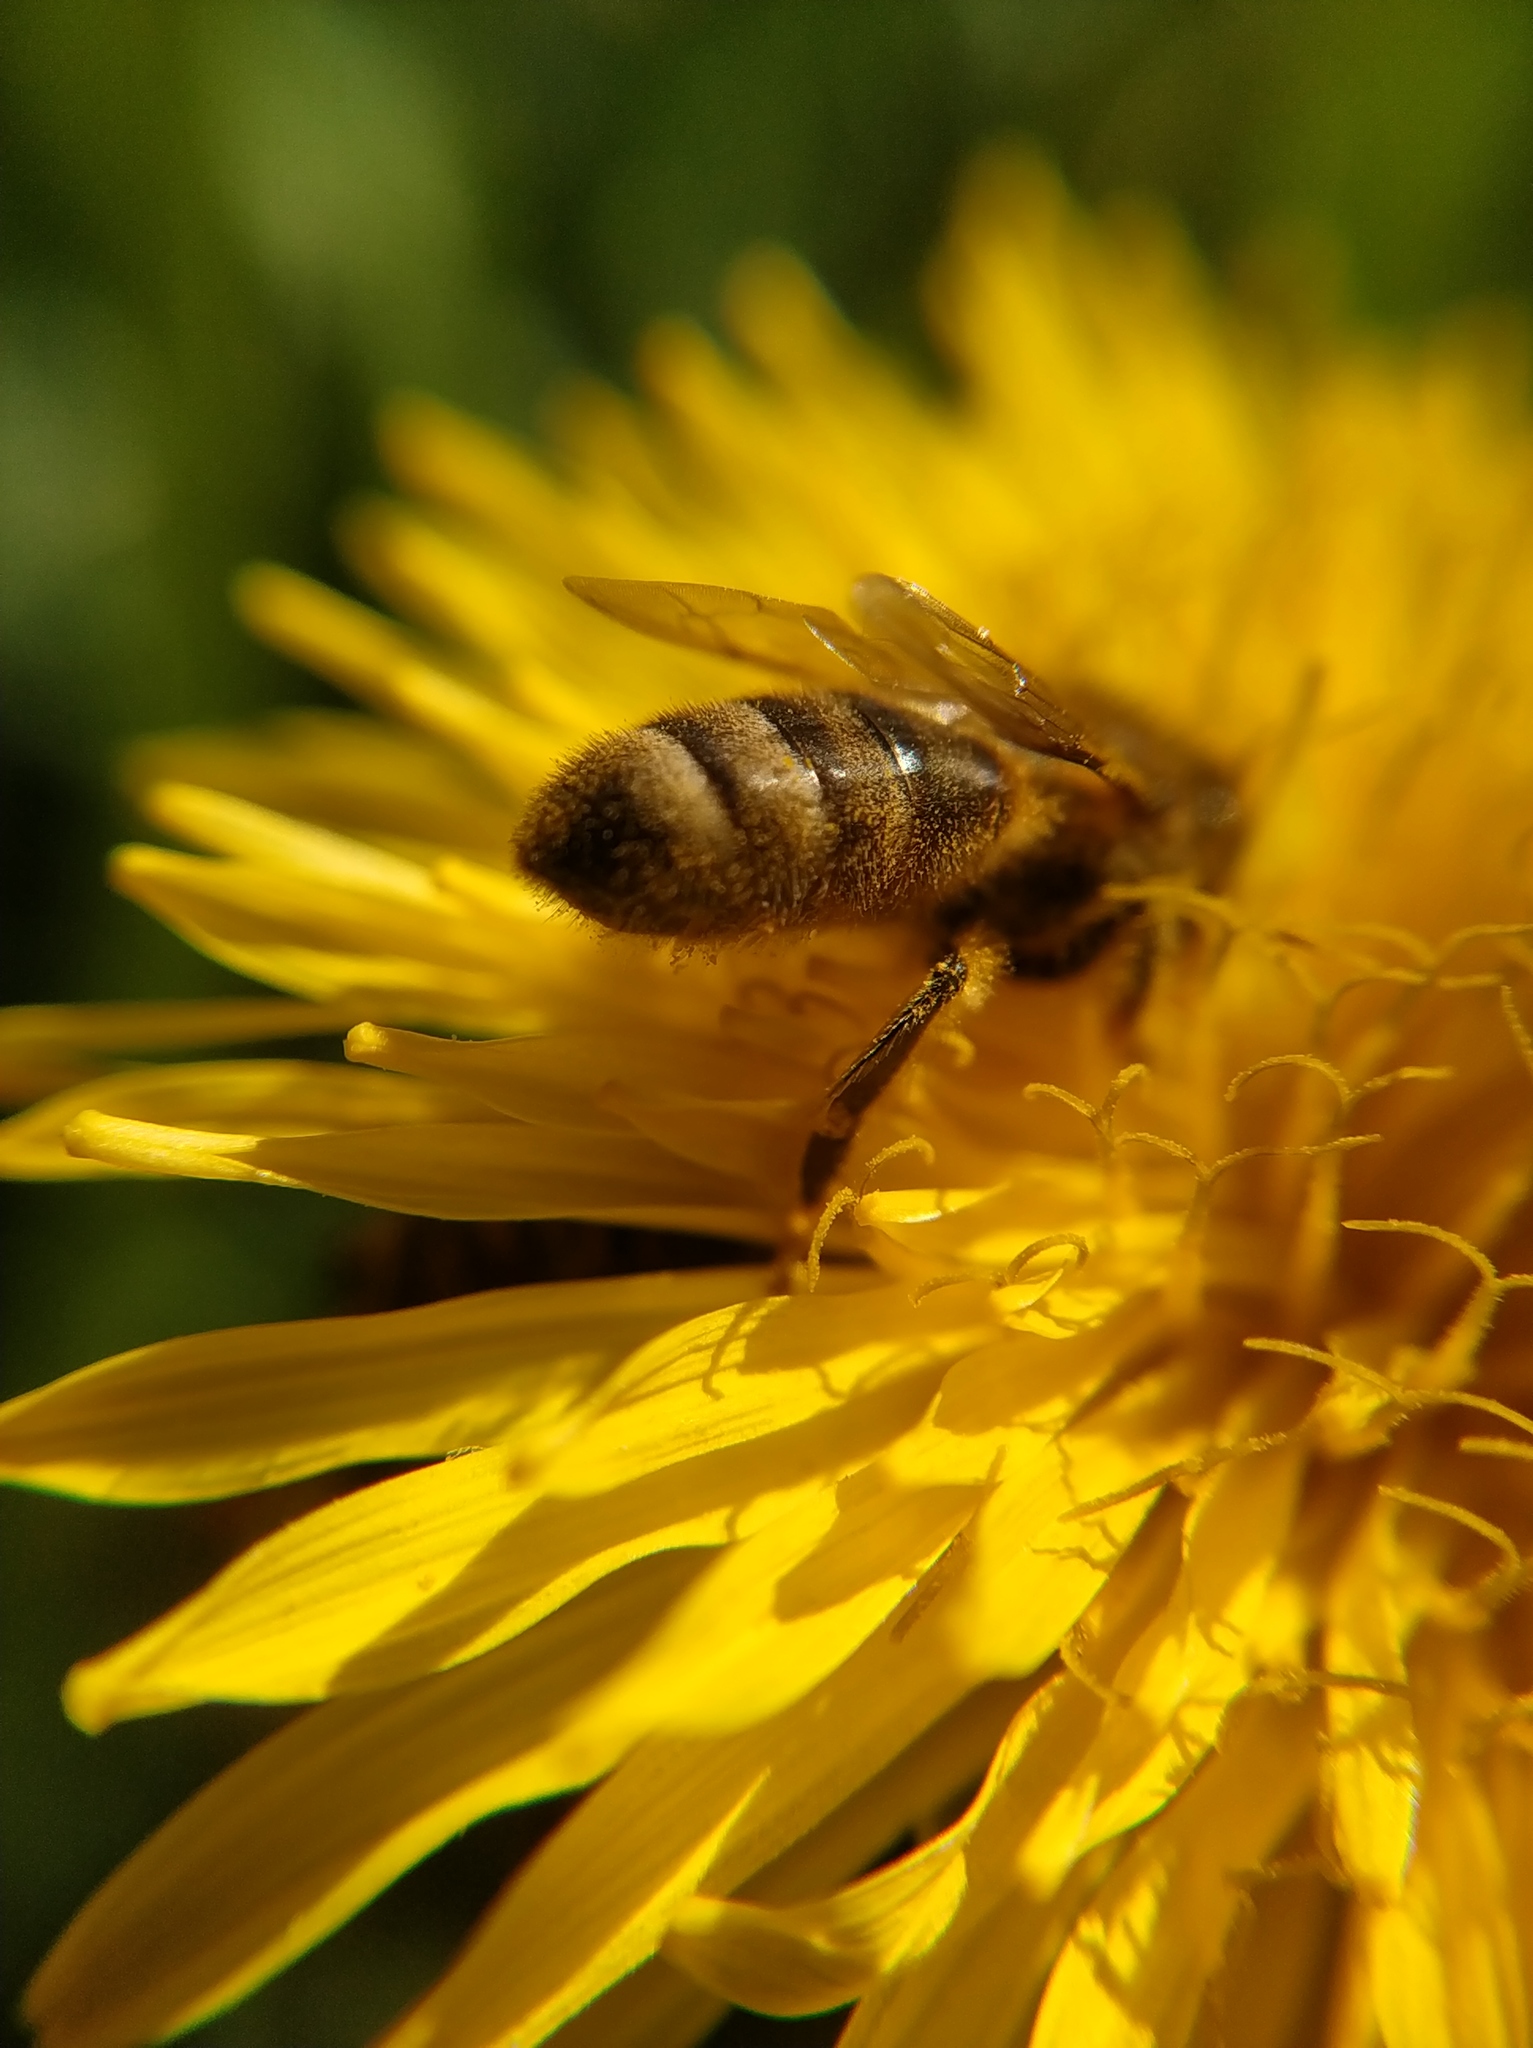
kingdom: Animalia
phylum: Arthropoda
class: Insecta
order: Hymenoptera
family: Apidae
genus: Apis
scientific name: Apis mellifera
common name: Honey bee
